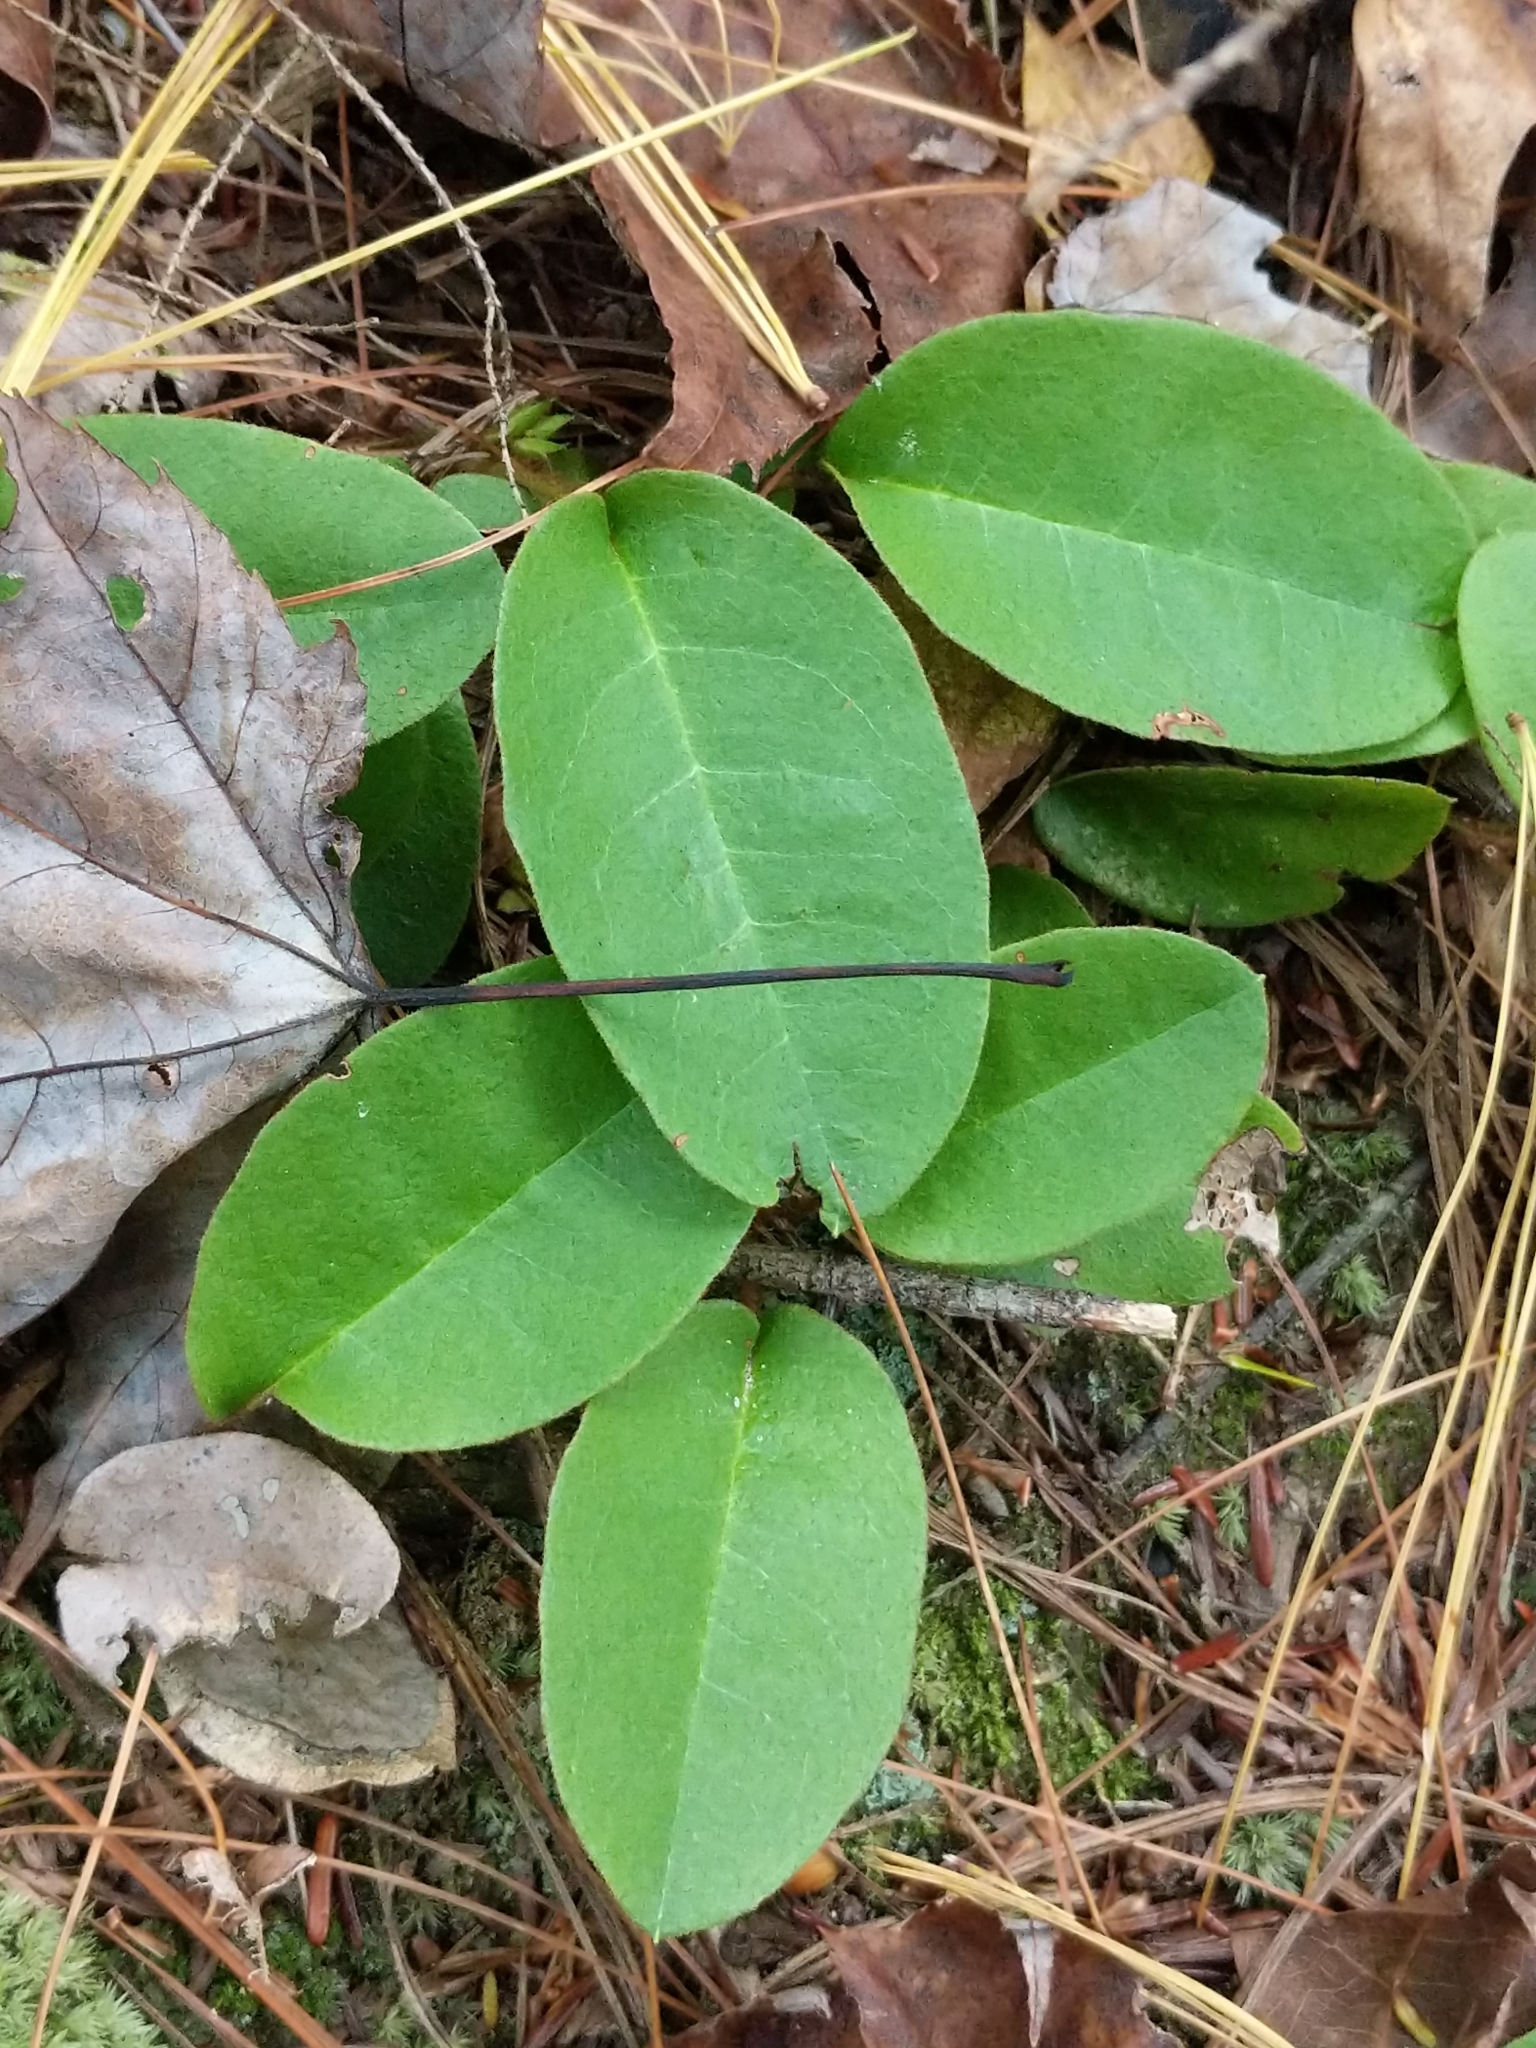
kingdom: Plantae
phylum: Tracheophyta
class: Magnoliopsida
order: Ericales
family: Ericaceae
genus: Epigaea
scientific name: Epigaea repens
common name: Gravelroot
